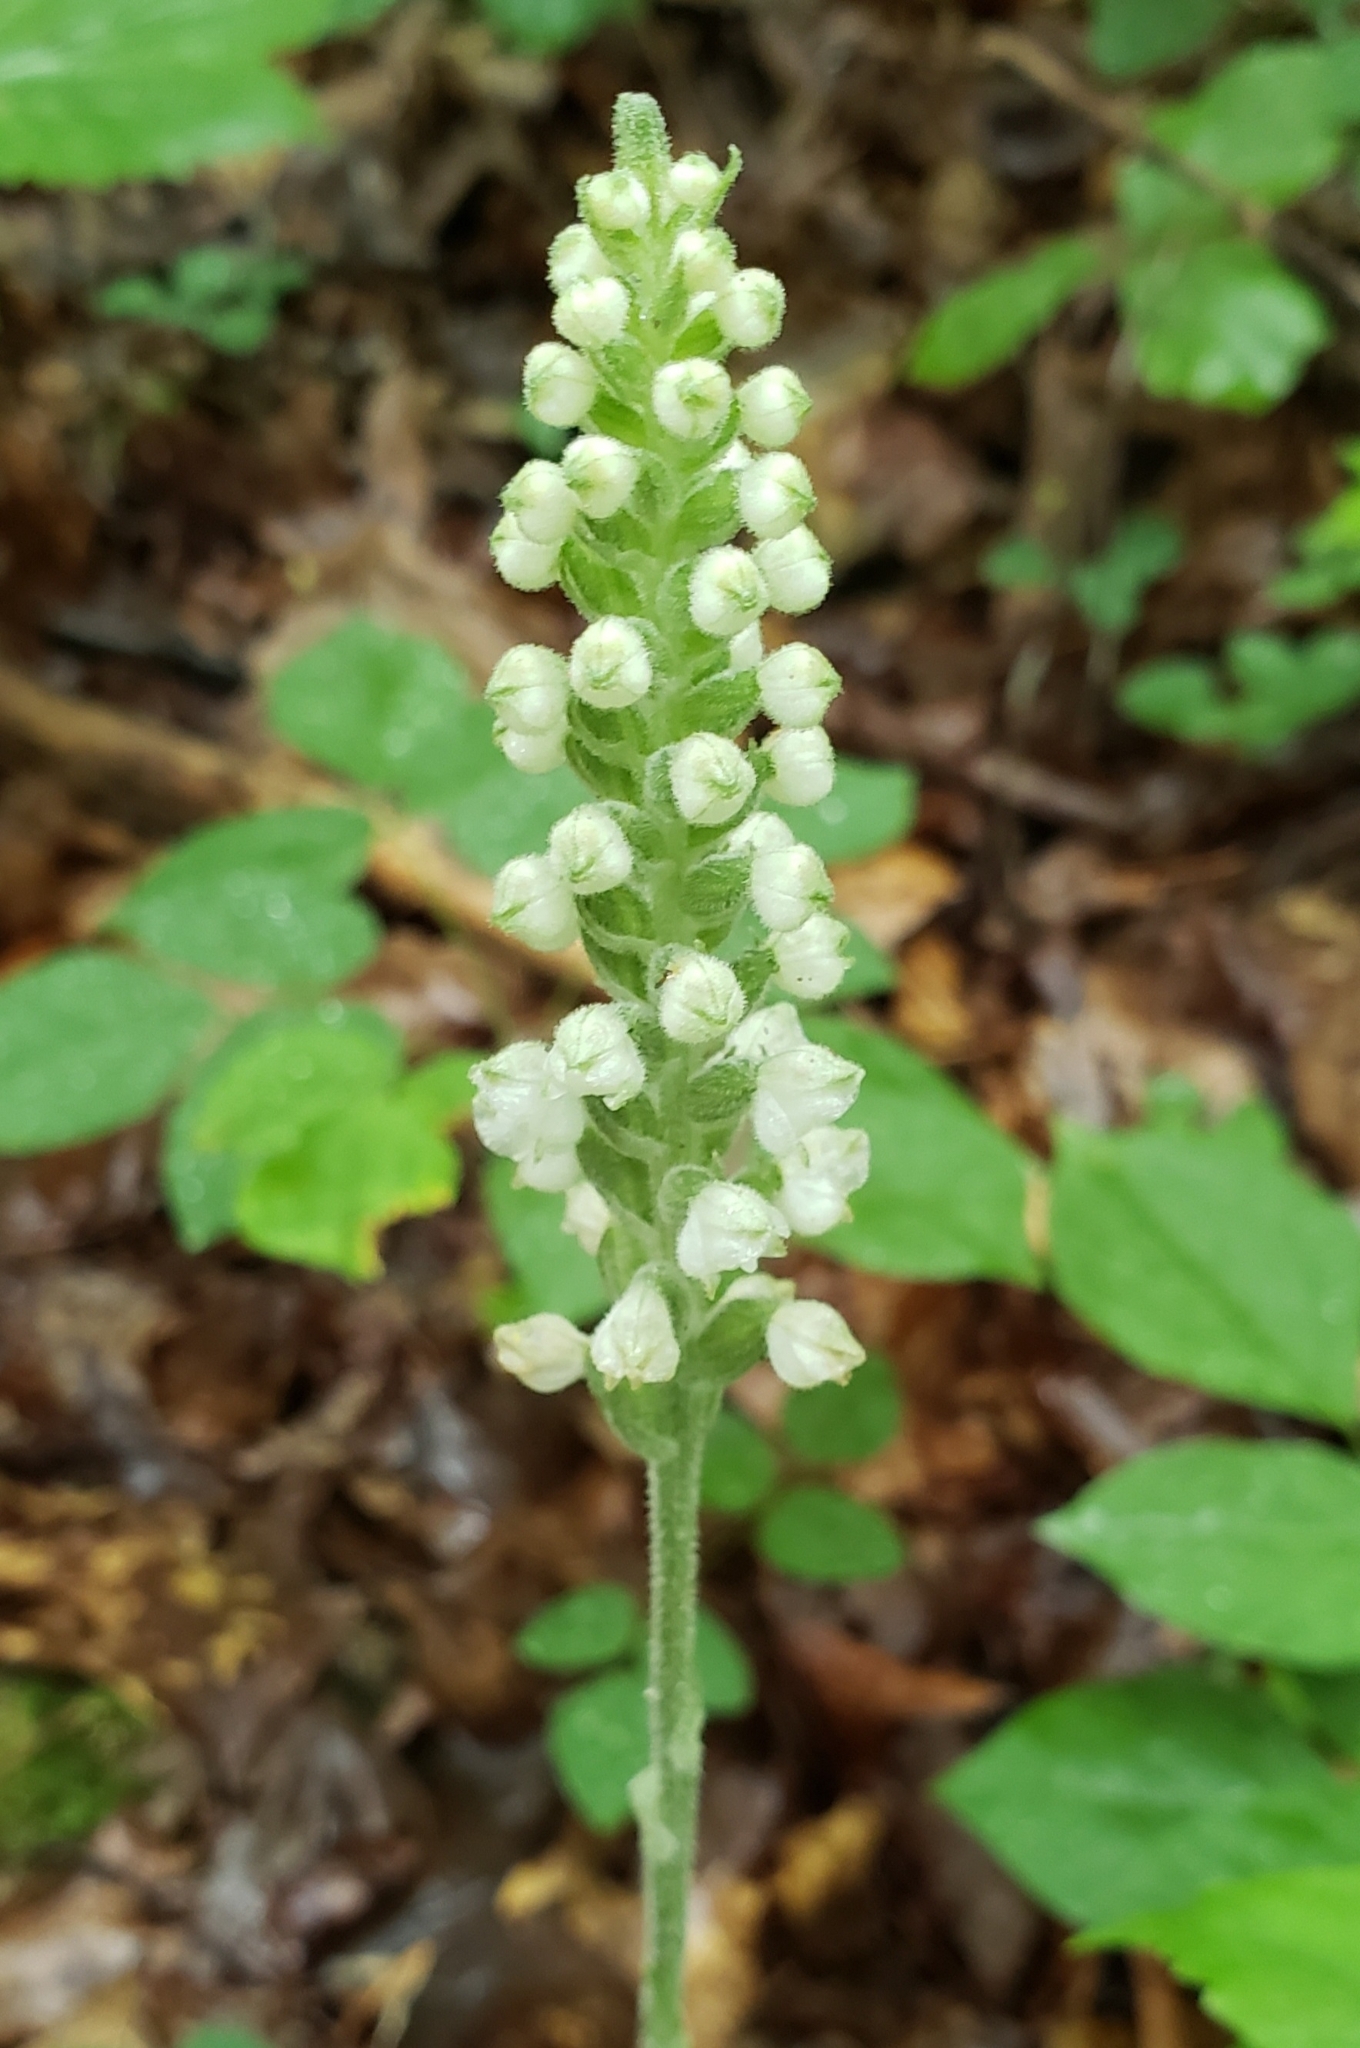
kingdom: Plantae
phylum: Tracheophyta
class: Liliopsida
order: Asparagales
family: Orchidaceae
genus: Goodyera
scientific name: Goodyera pubescens
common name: Downy rattlesnake-plantain
